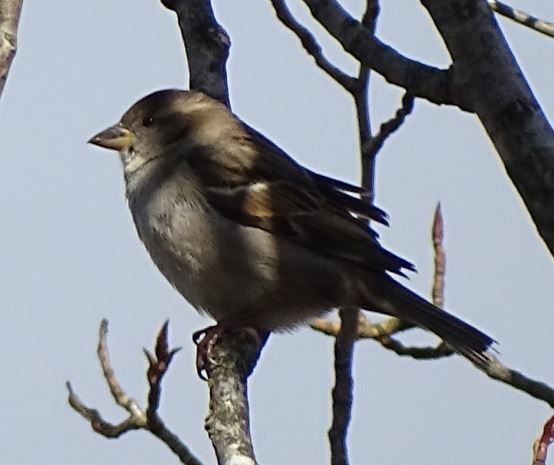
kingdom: Animalia
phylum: Chordata
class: Aves
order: Passeriformes
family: Passeridae
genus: Passer
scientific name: Passer domesticus
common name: House sparrow
